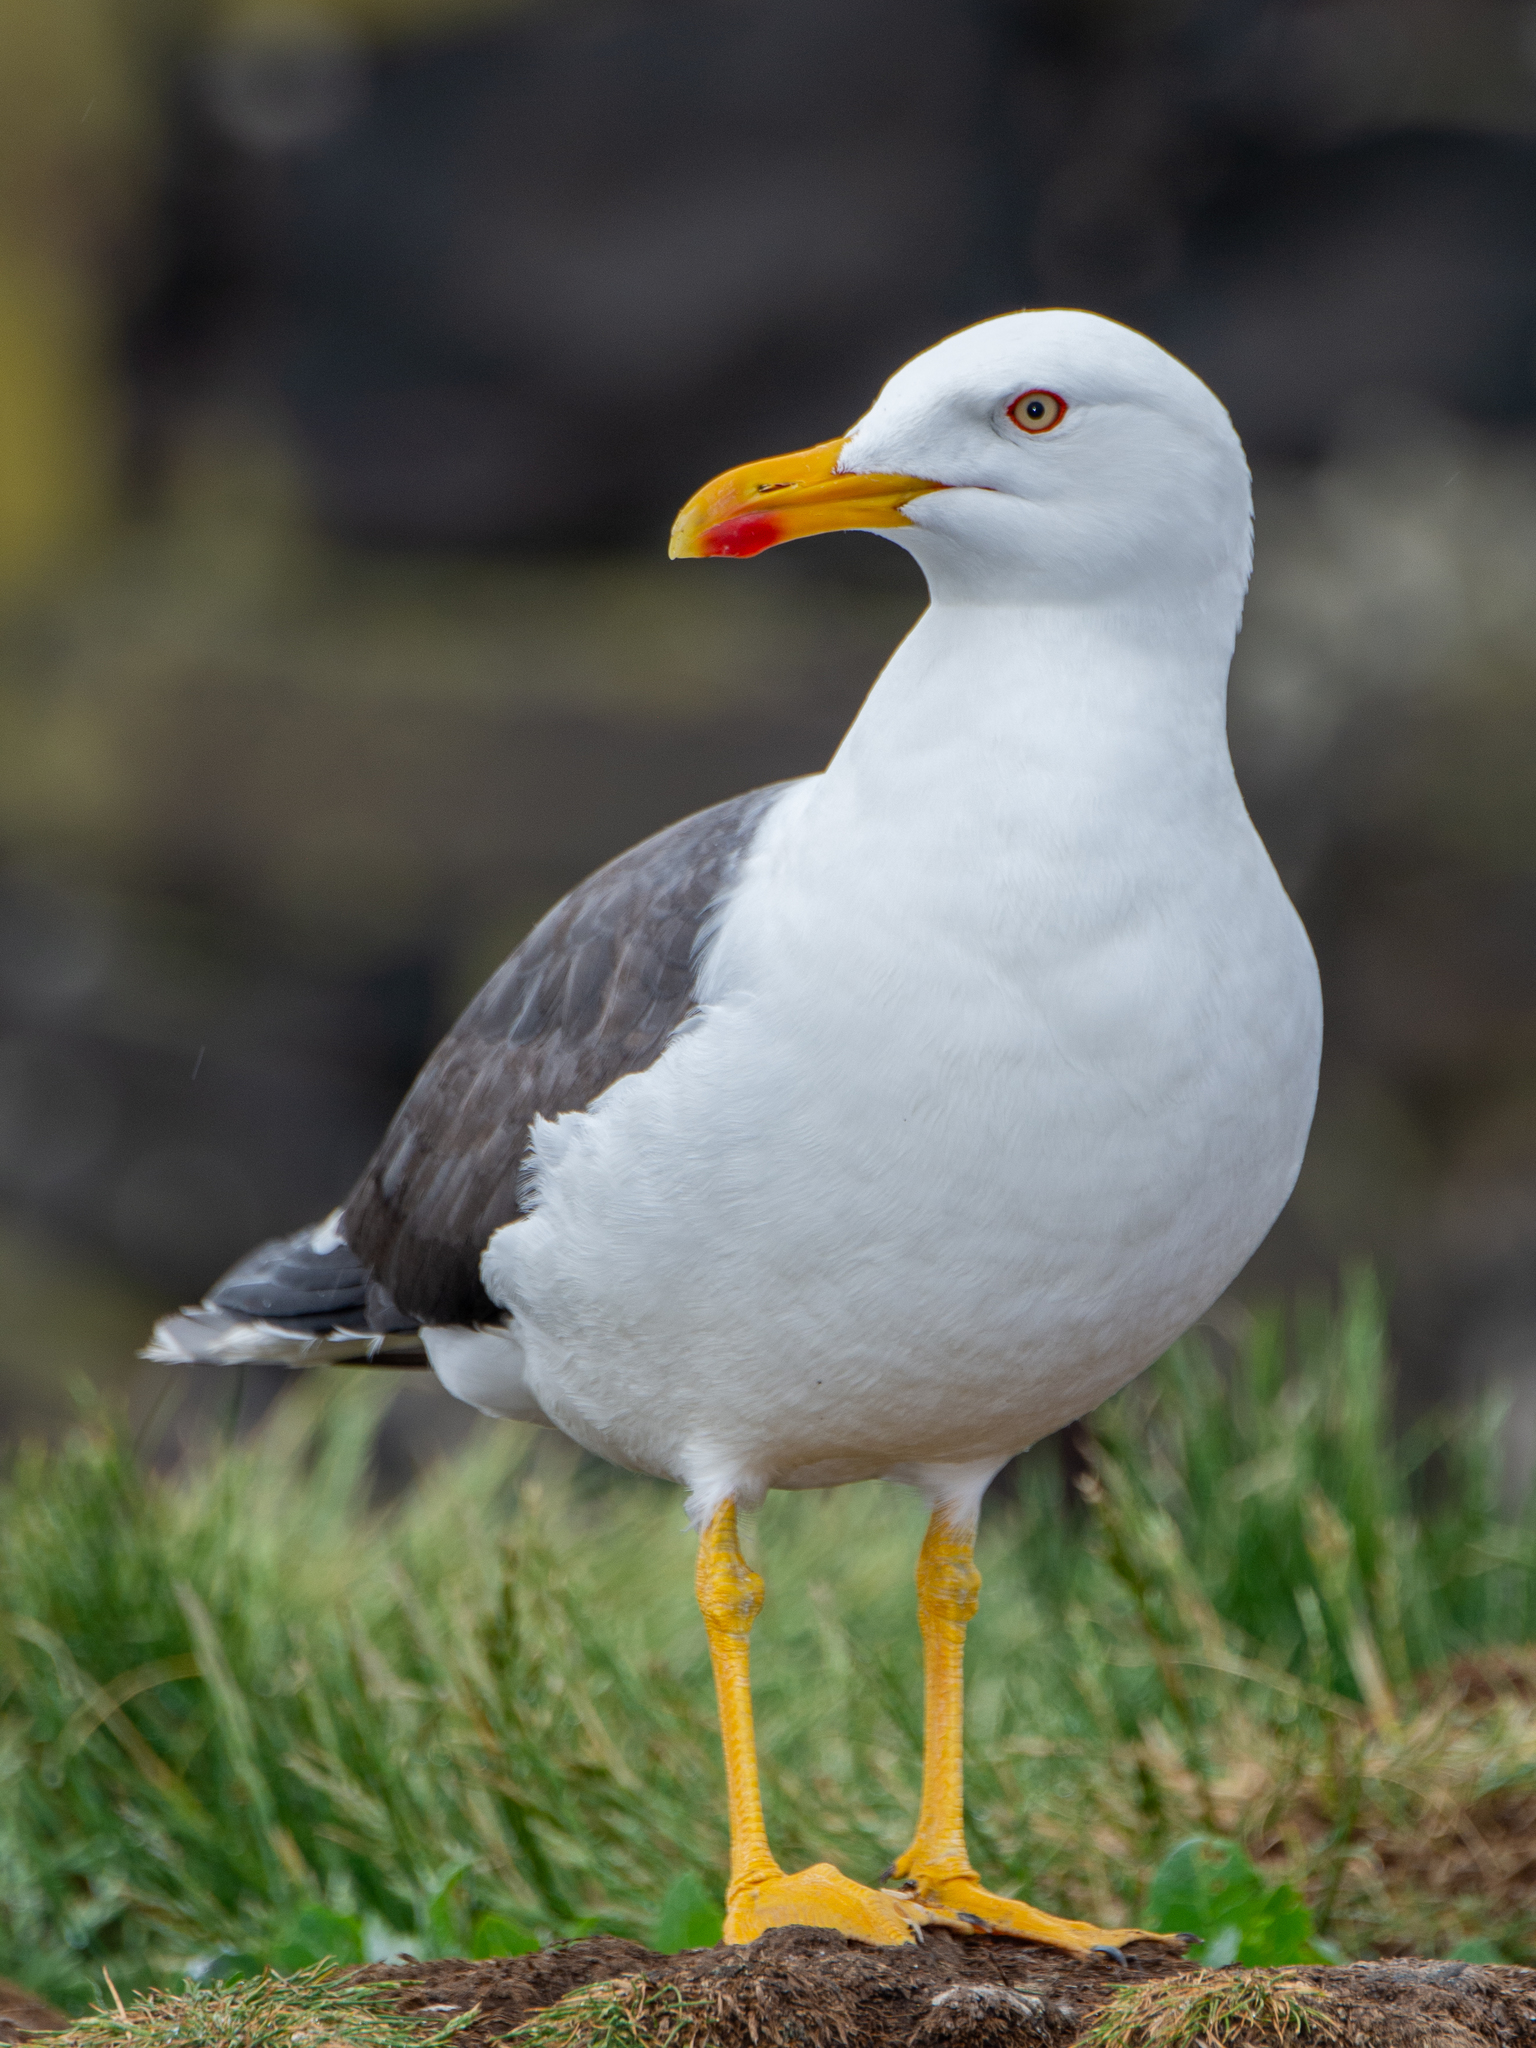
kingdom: Animalia
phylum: Chordata
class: Aves
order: Charadriiformes
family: Laridae
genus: Larus
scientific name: Larus fuscus
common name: Lesser black-backed gull
